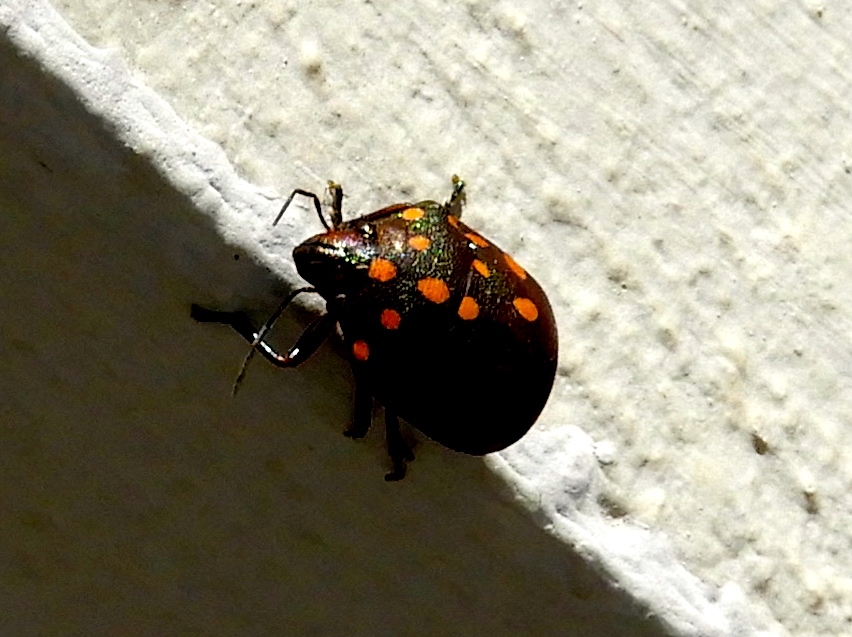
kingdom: Animalia
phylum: Arthropoda
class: Insecta
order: Hemiptera
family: Scutelleridae
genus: Pachycoris
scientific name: Pachycoris
